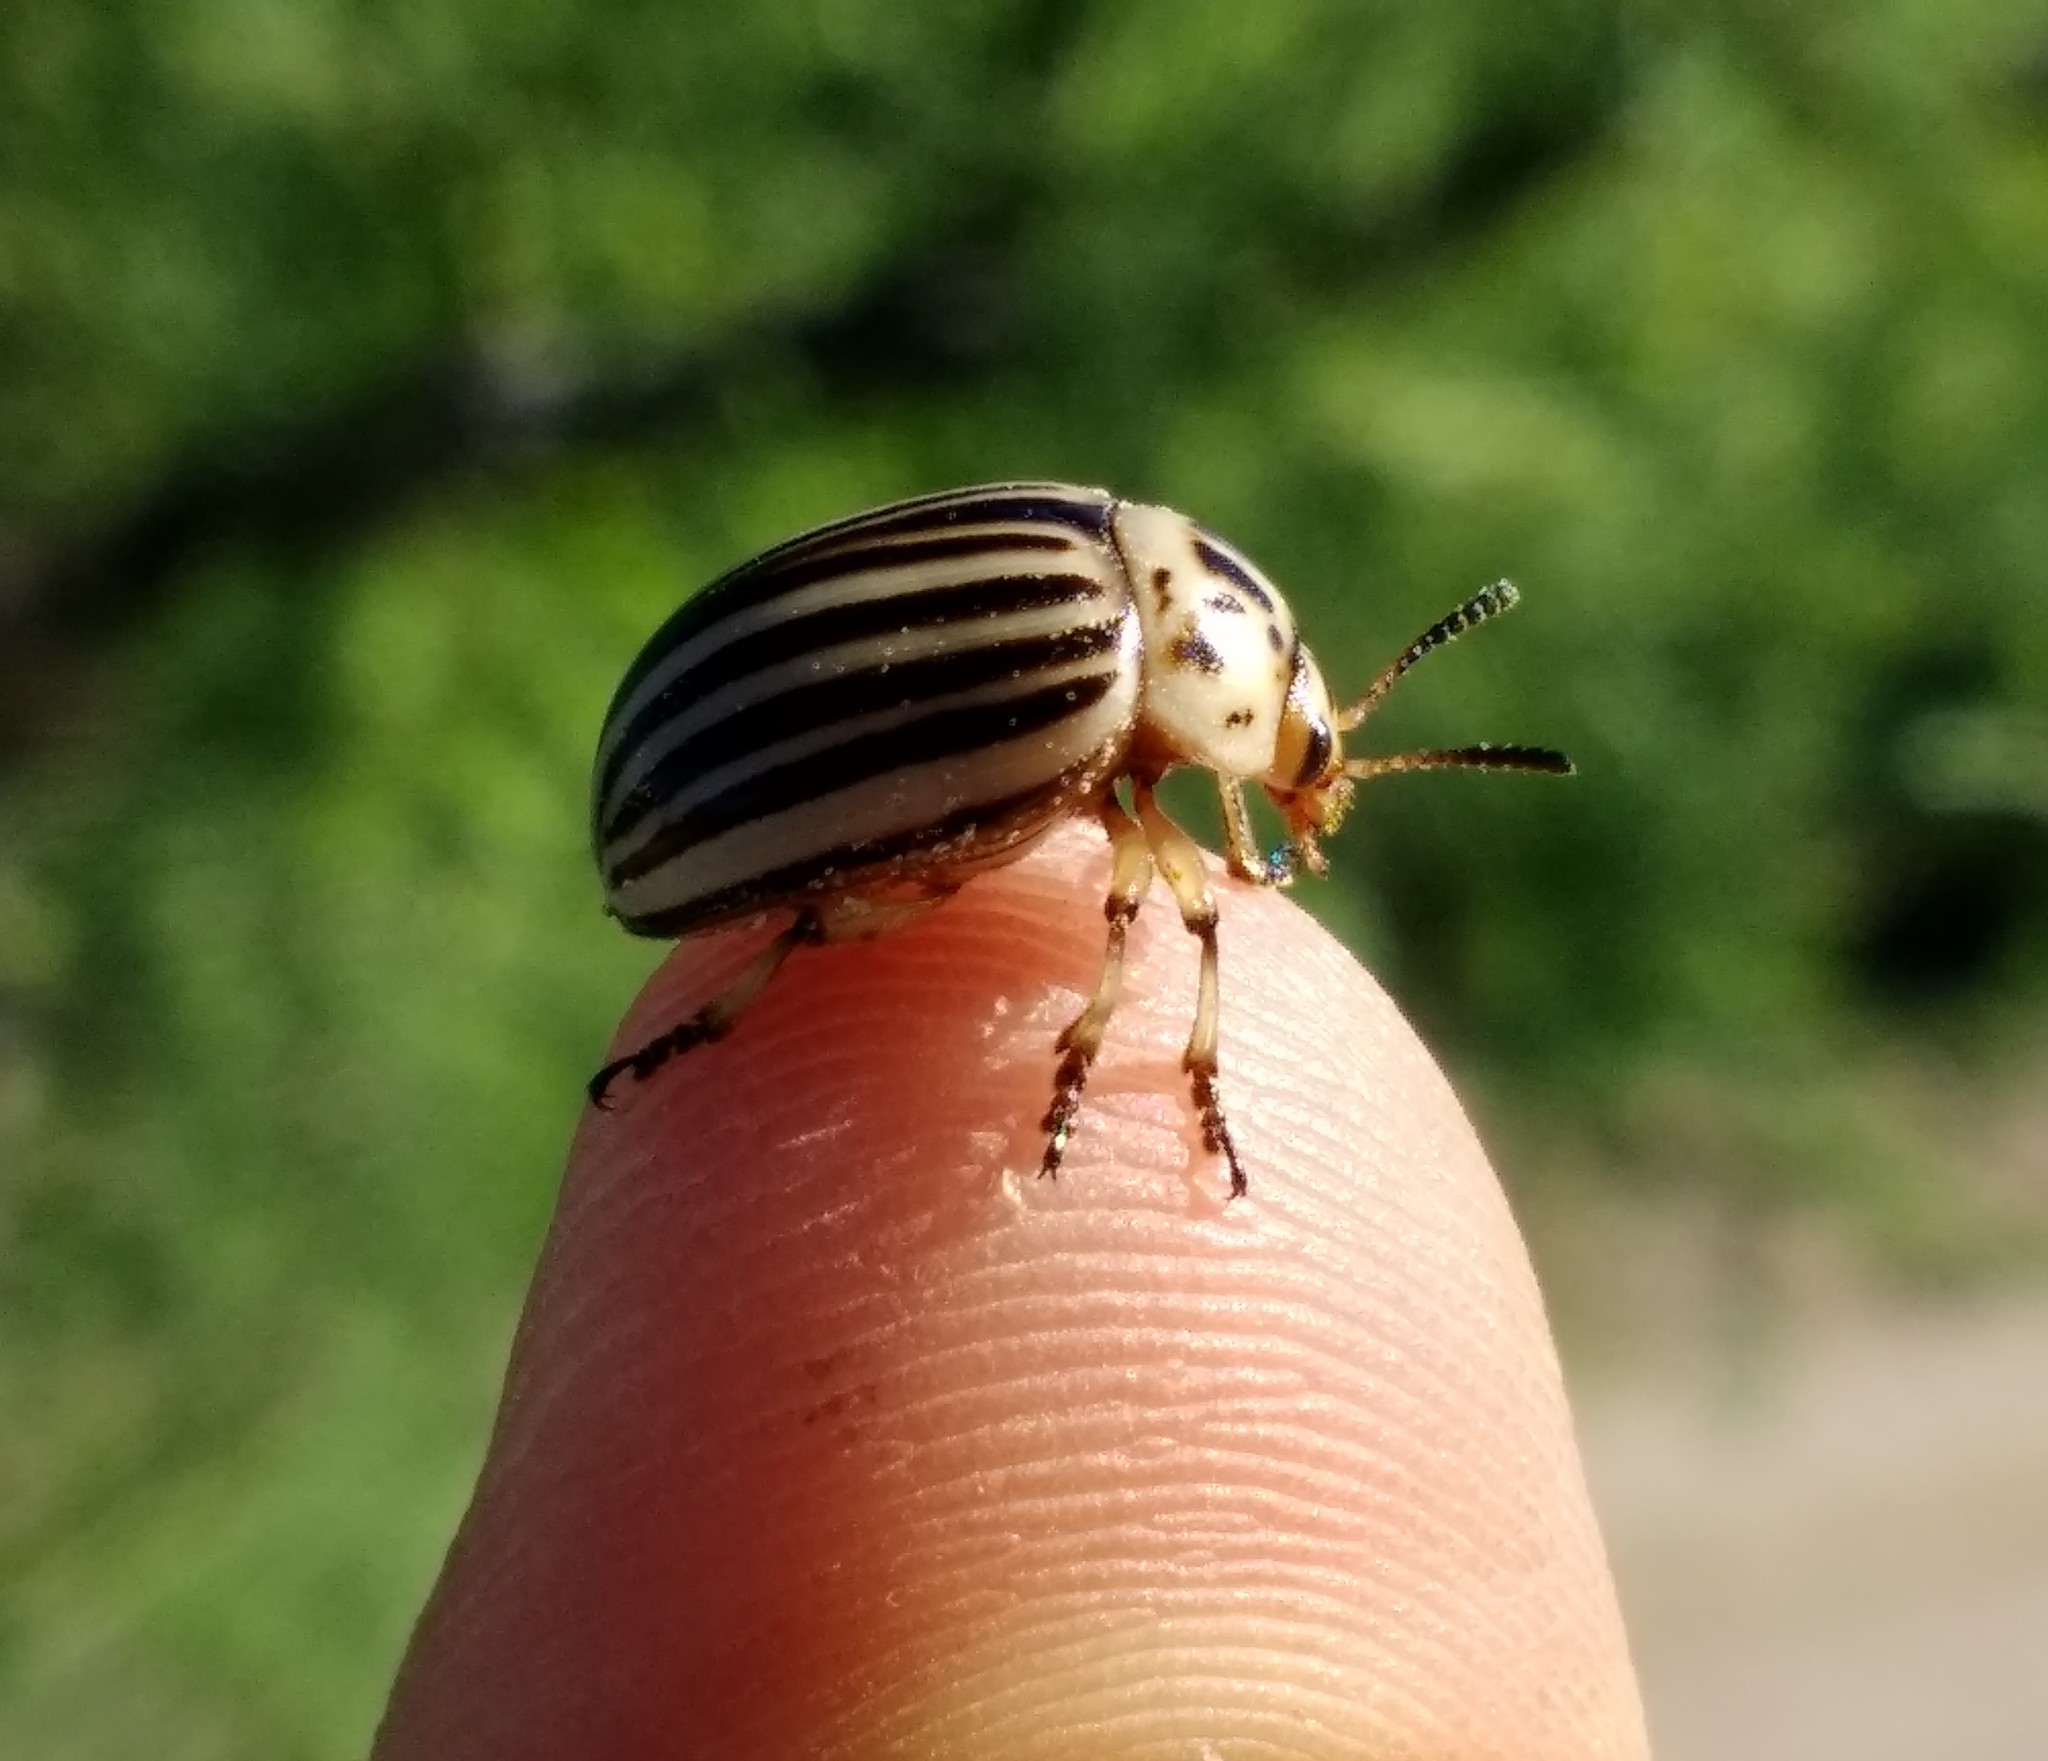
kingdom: Animalia
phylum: Arthropoda
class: Insecta
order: Coleoptera
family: Chrysomelidae
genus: Leptinotarsa
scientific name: Leptinotarsa decemlineata
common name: Colorado potato beetle
